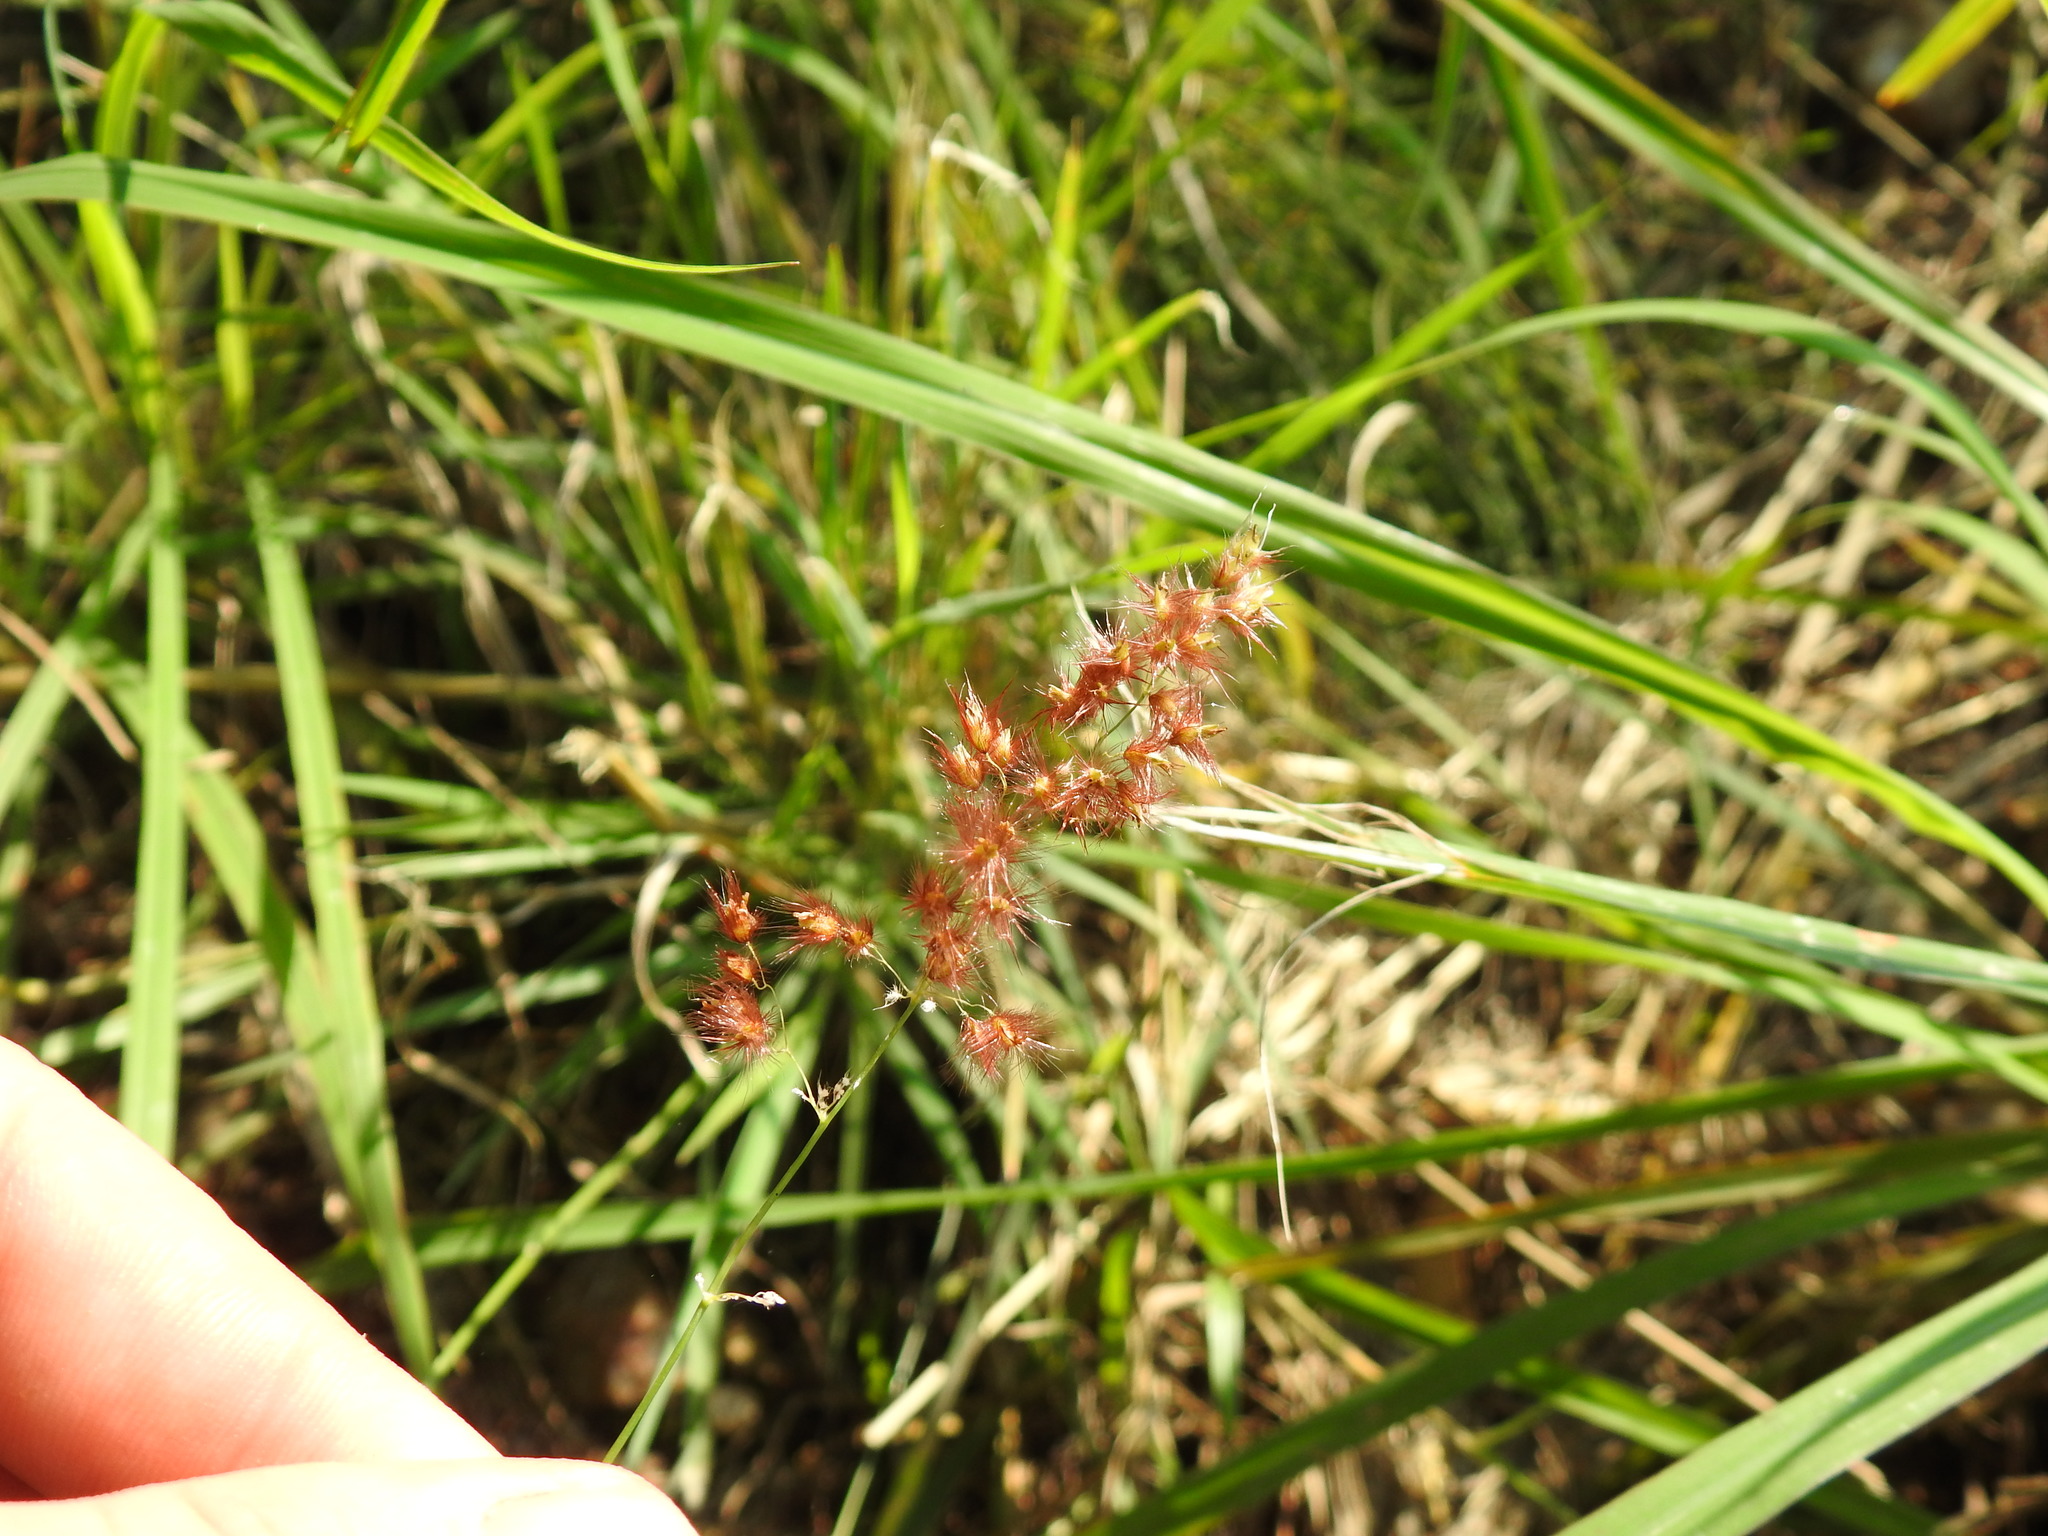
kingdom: Plantae
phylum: Tracheophyta
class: Liliopsida
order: Poales
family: Poaceae
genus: Melinis
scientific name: Melinis repens
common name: Rose natal grass
